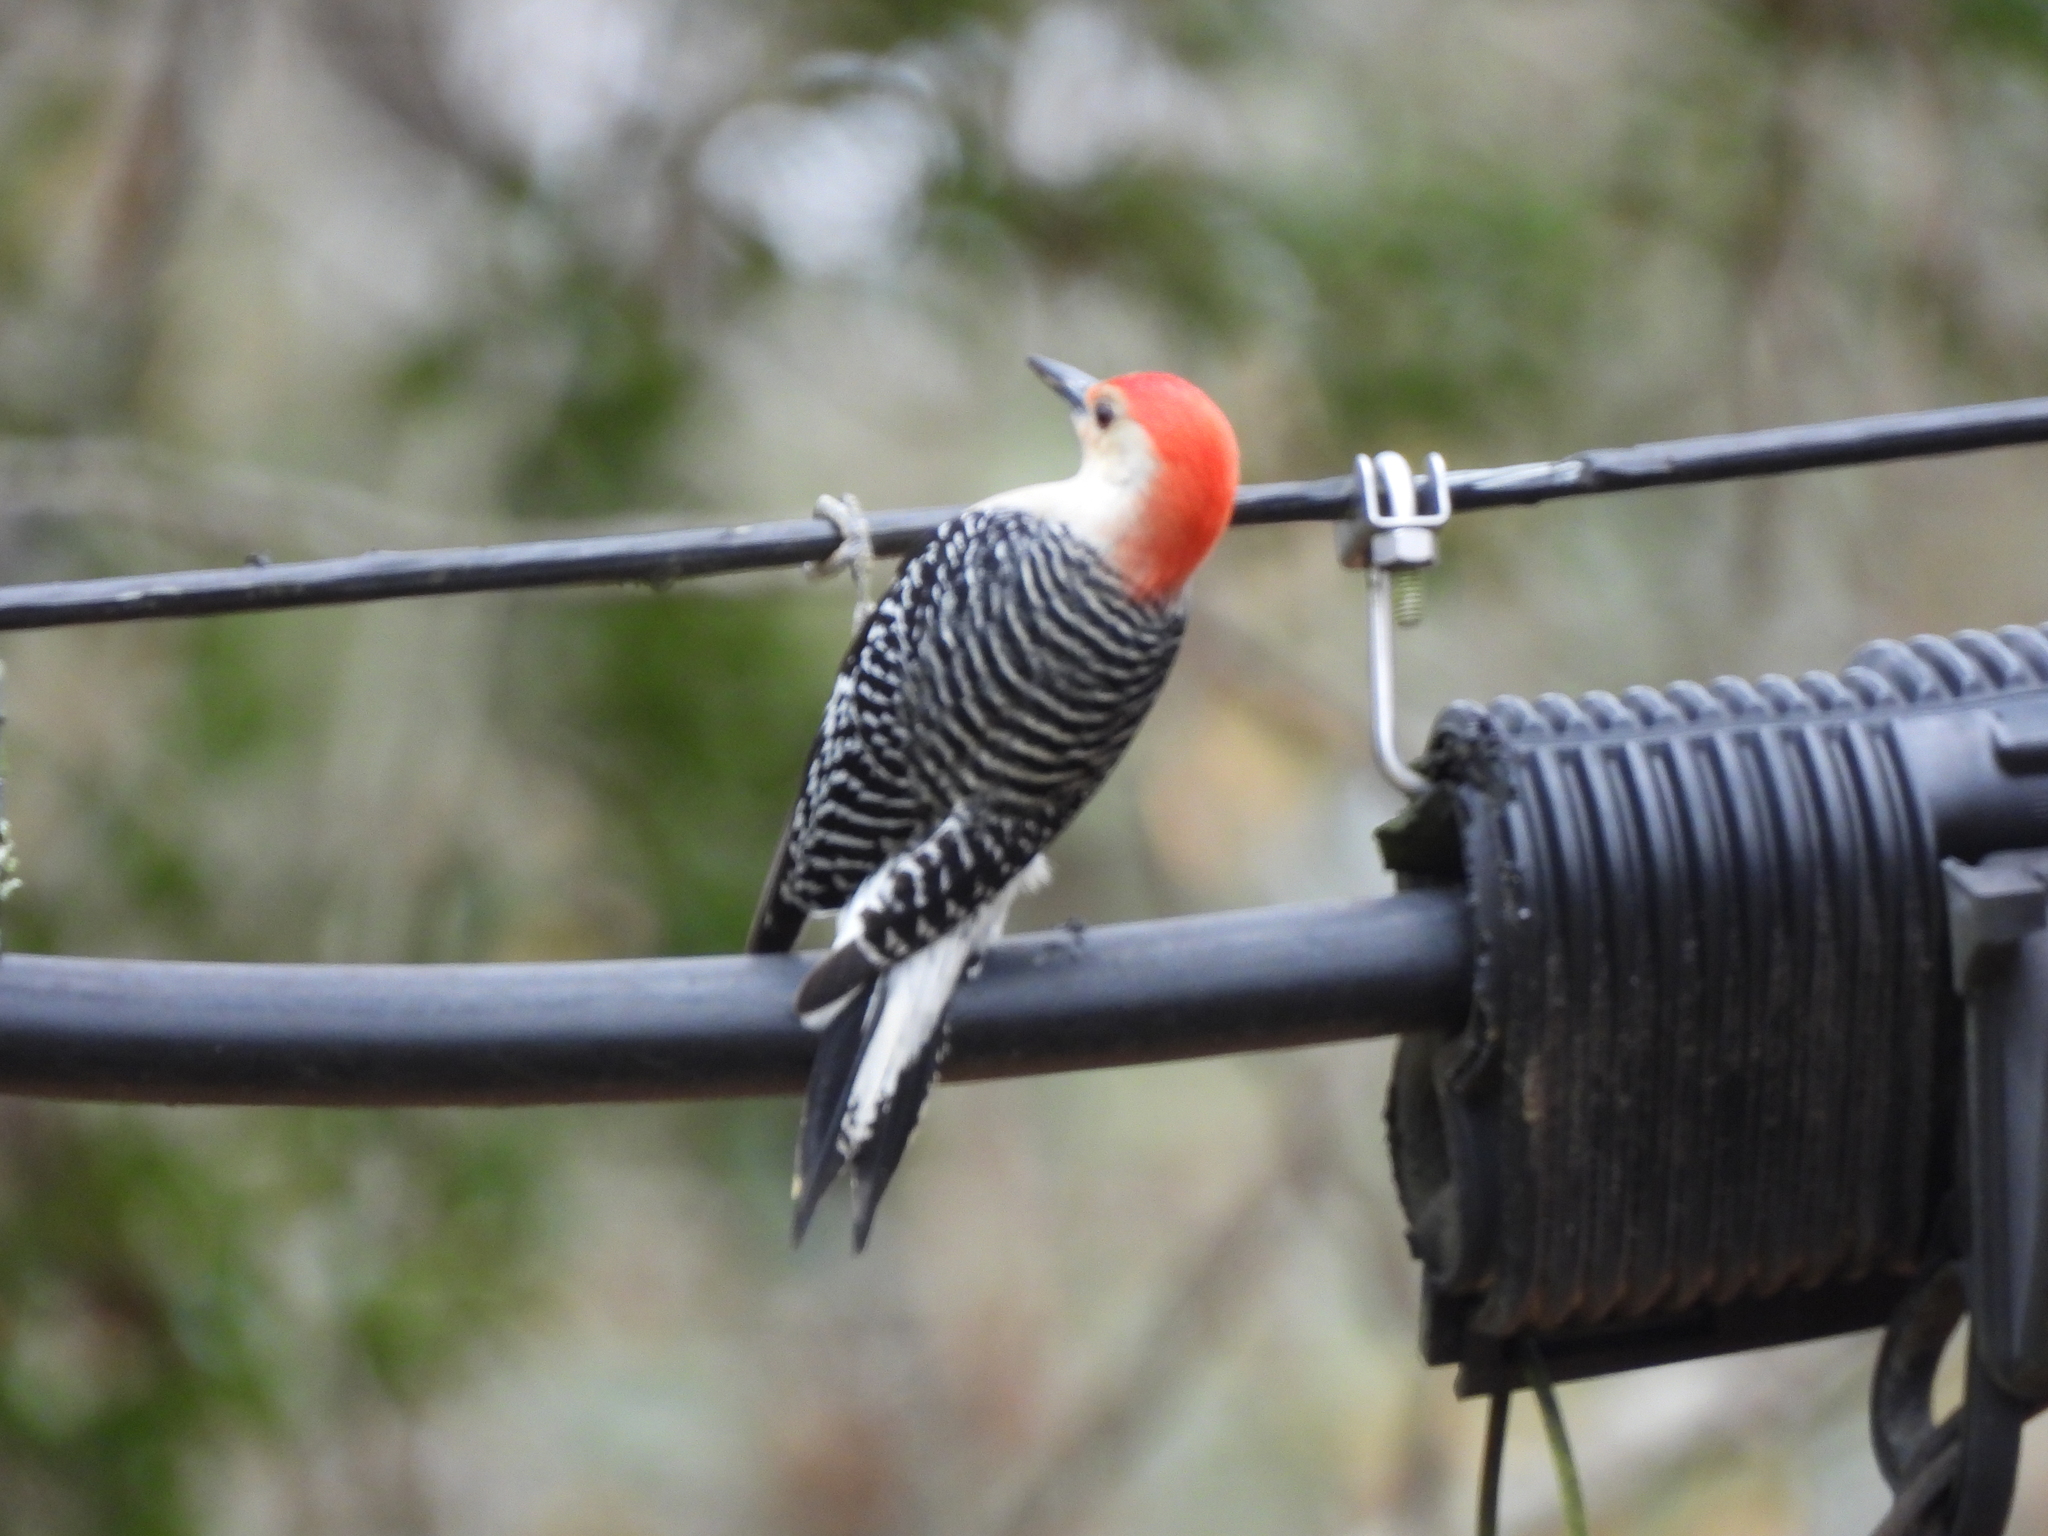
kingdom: Animalia
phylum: Chordata
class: Aves
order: Piciformes
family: Picidae
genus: Melanerpes
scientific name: Melanerpes carolinus
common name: Red-bellied woodpecker
